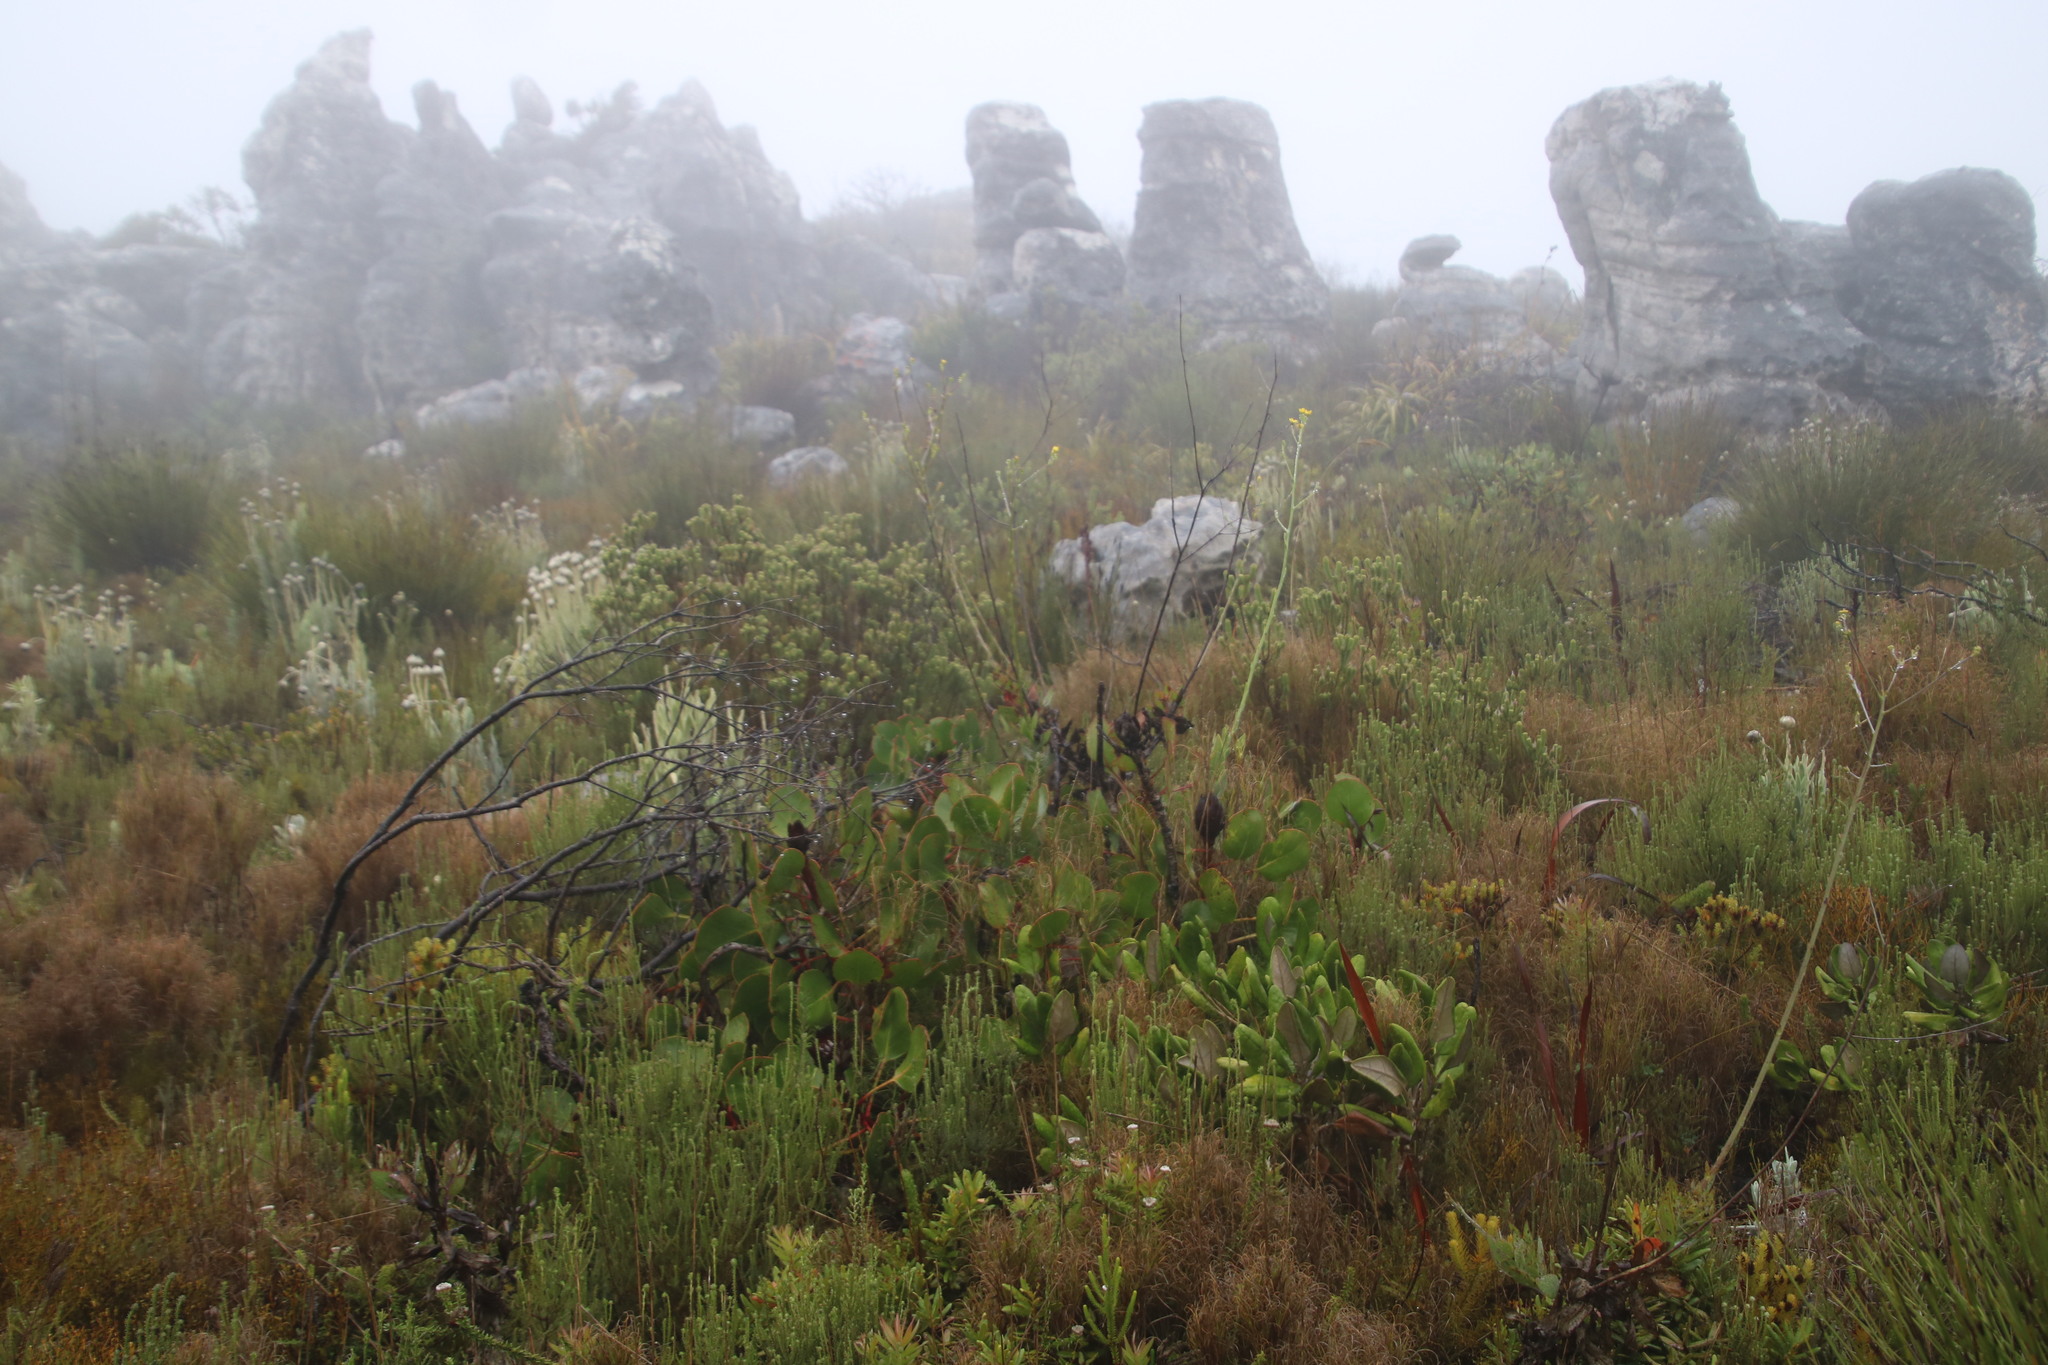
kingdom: Plantae
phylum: Tracheophyta
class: Magnoliopsida
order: Proteales
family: Proteaceae
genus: Protea
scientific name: Protea cynaroides
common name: King protea
